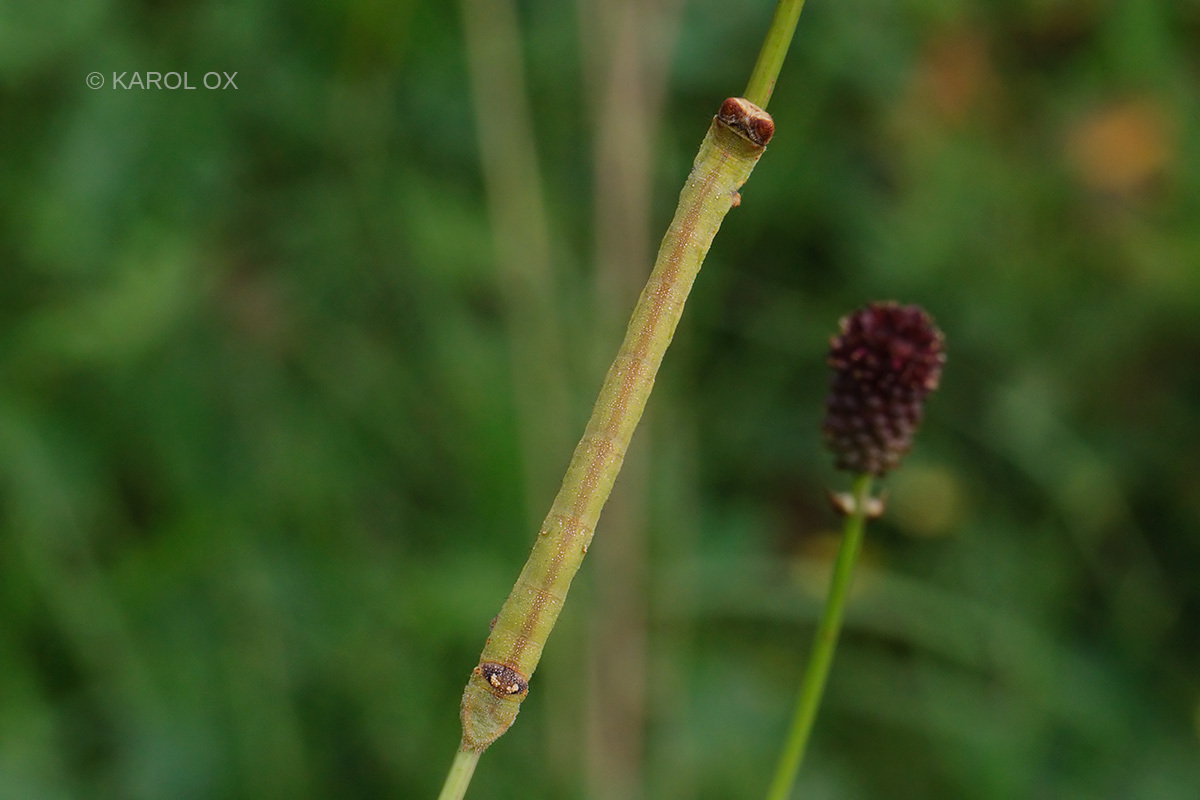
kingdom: Animalia
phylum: Arthropoda
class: Insecta
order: Lepidoptera
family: Geometridae
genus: Biston
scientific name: Biston betularia
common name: Peppered moth
